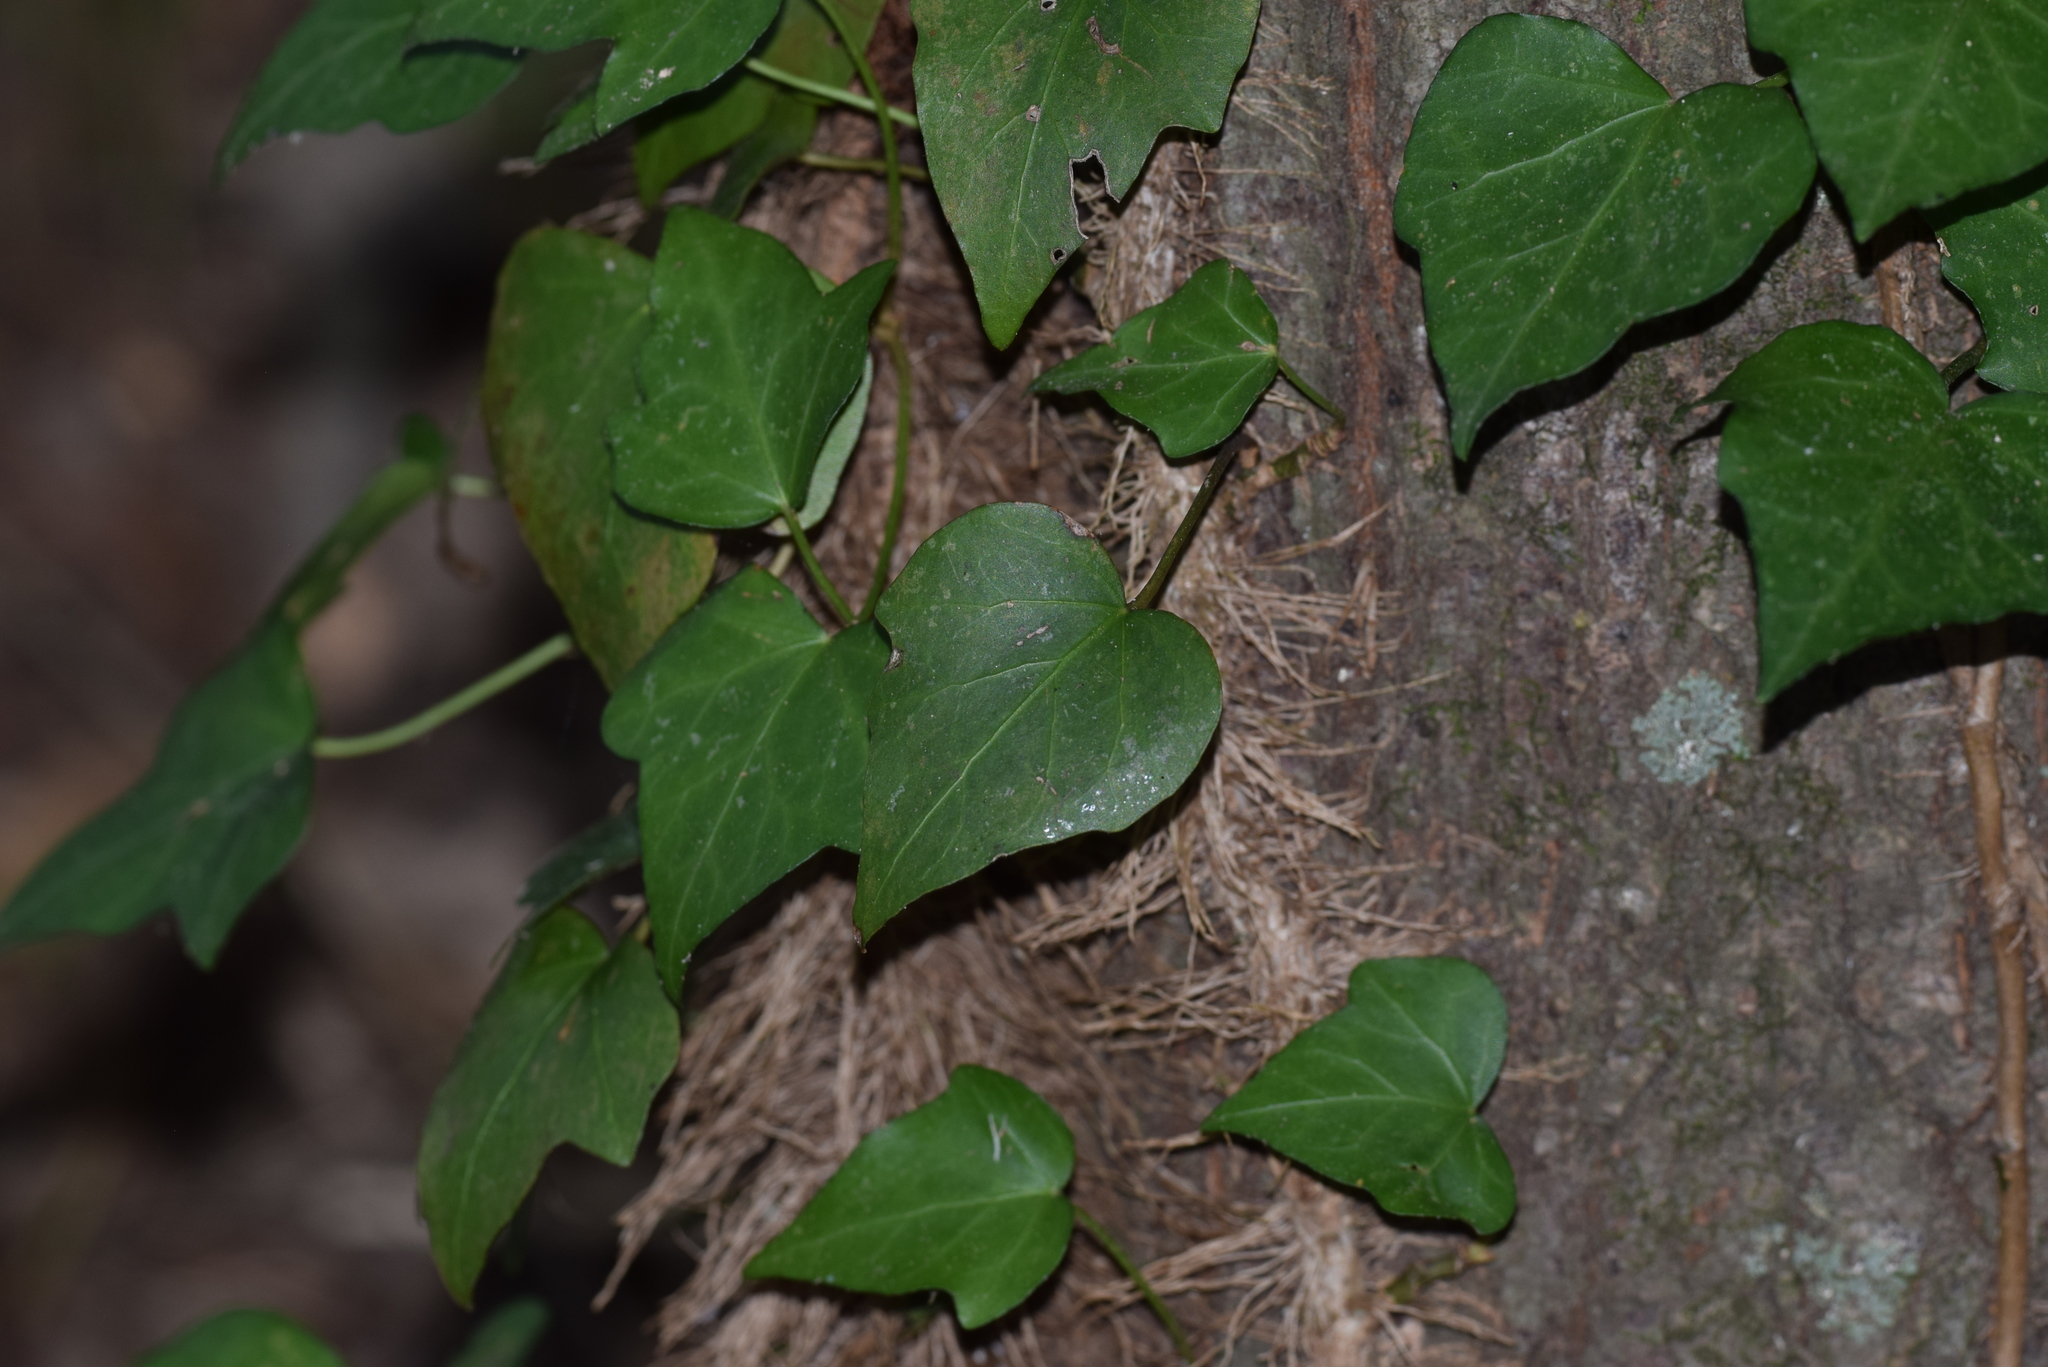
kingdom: Plantae
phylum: Tracheophyta
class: Magnoliopsida
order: Apiales
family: Araliaceae
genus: Hedera
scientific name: Hedera helix
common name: Ivy
